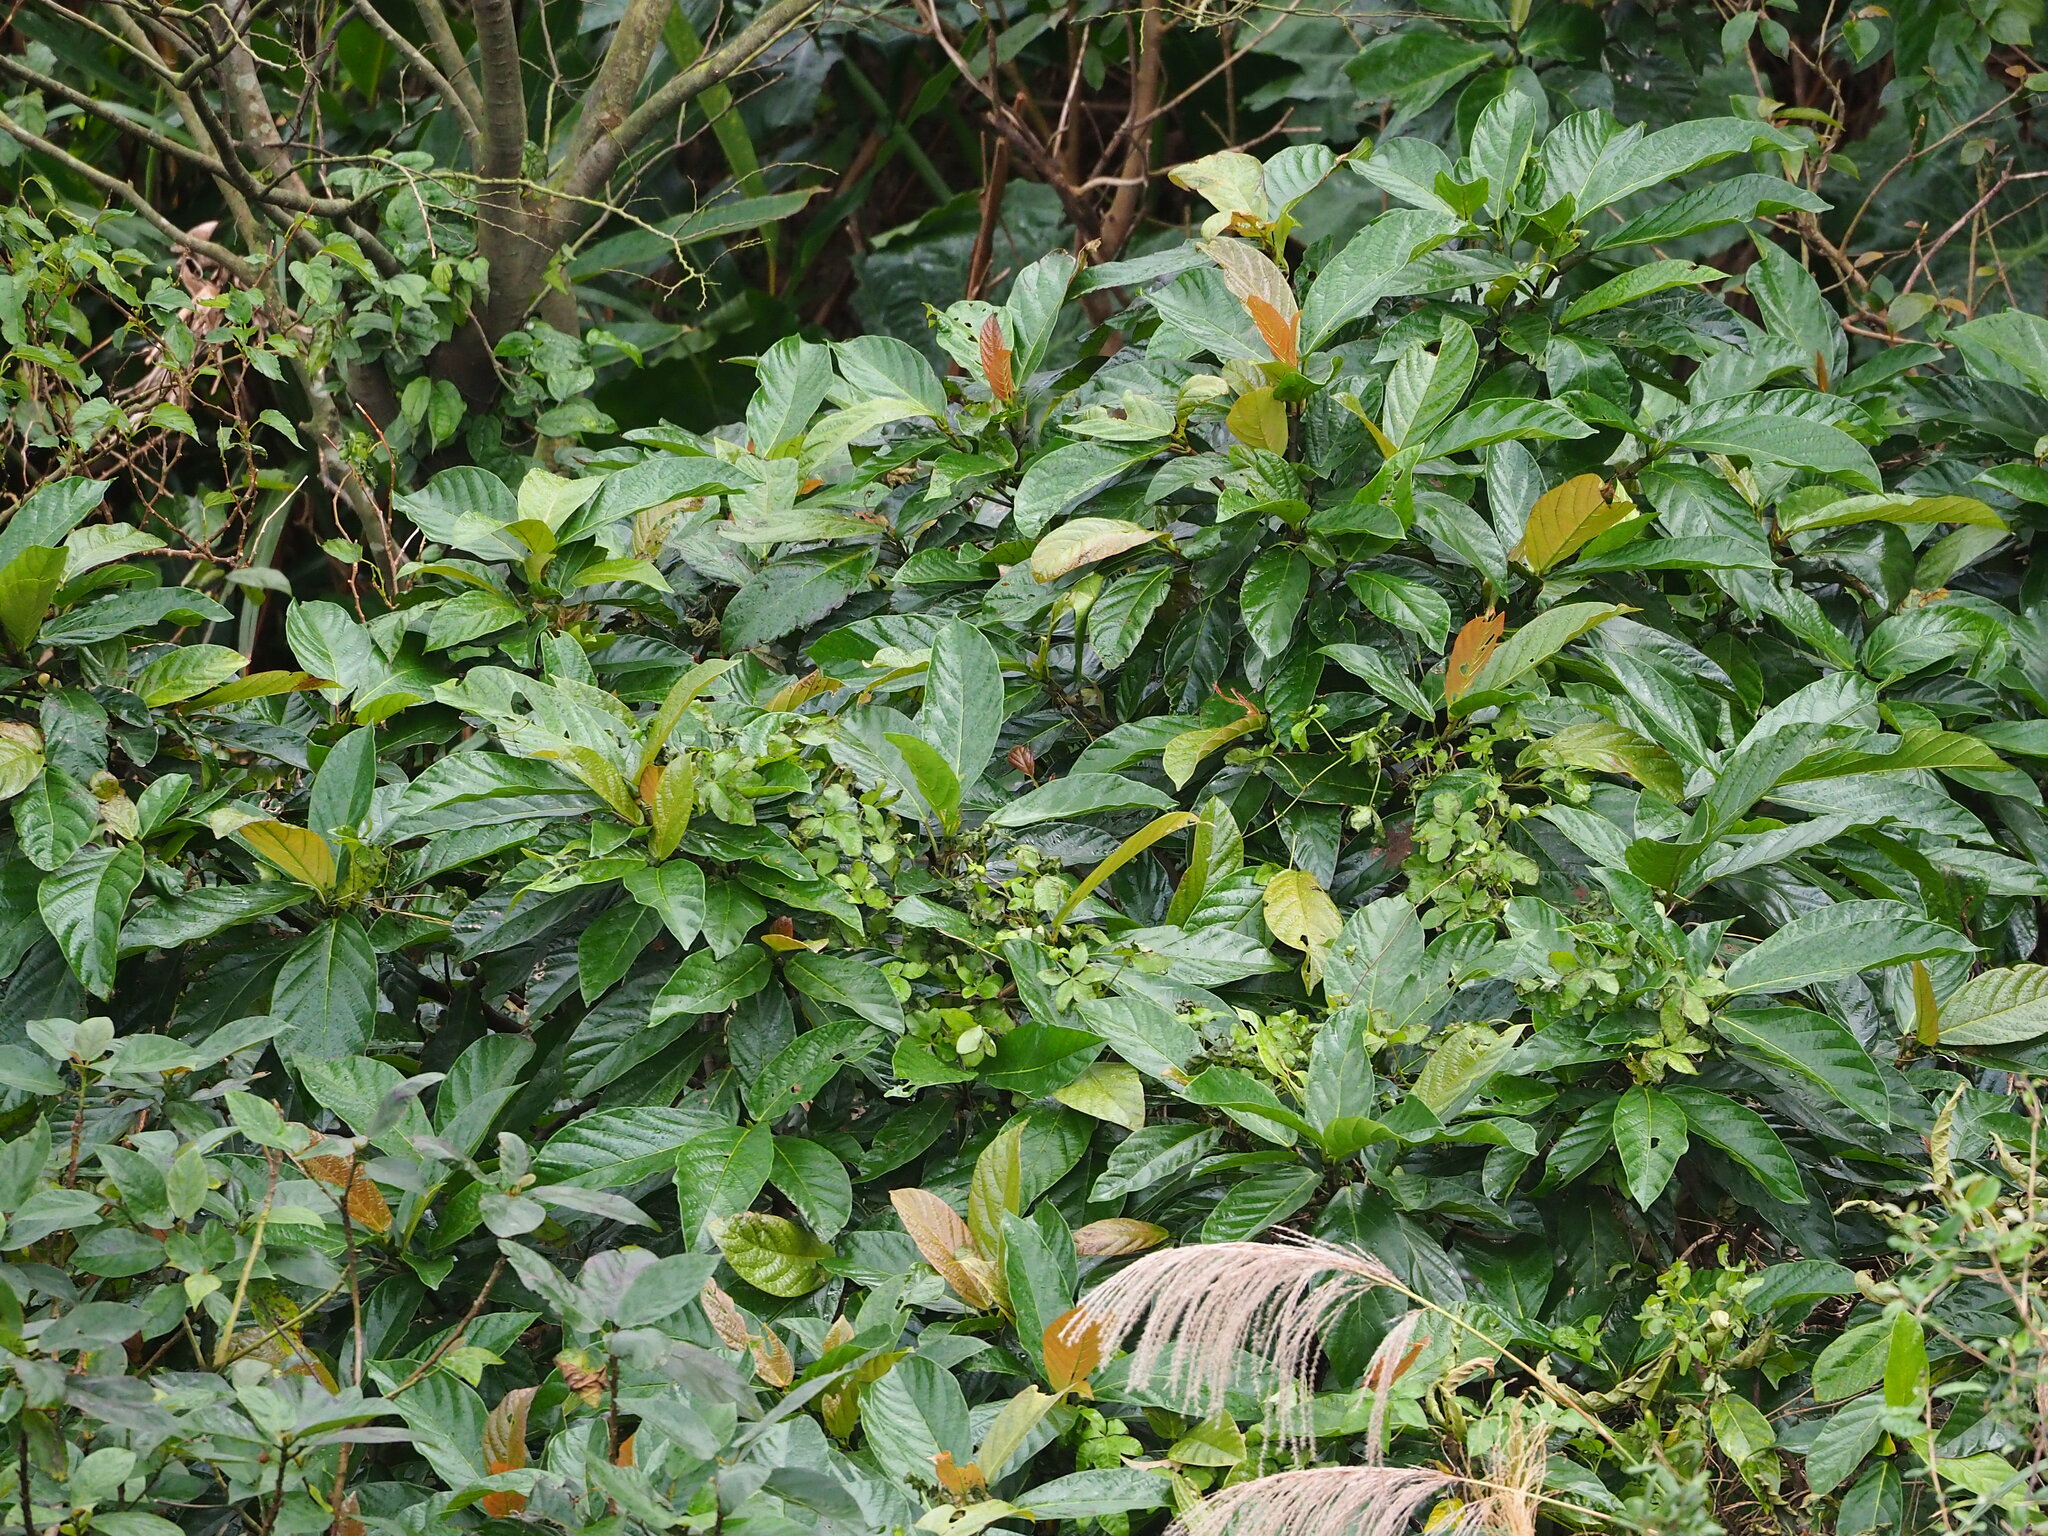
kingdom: Plantae
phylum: Tracheophyta
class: Magnoliopsida
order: Rosales
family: Moraceae
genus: Ficus
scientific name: Ficus benguetensis
